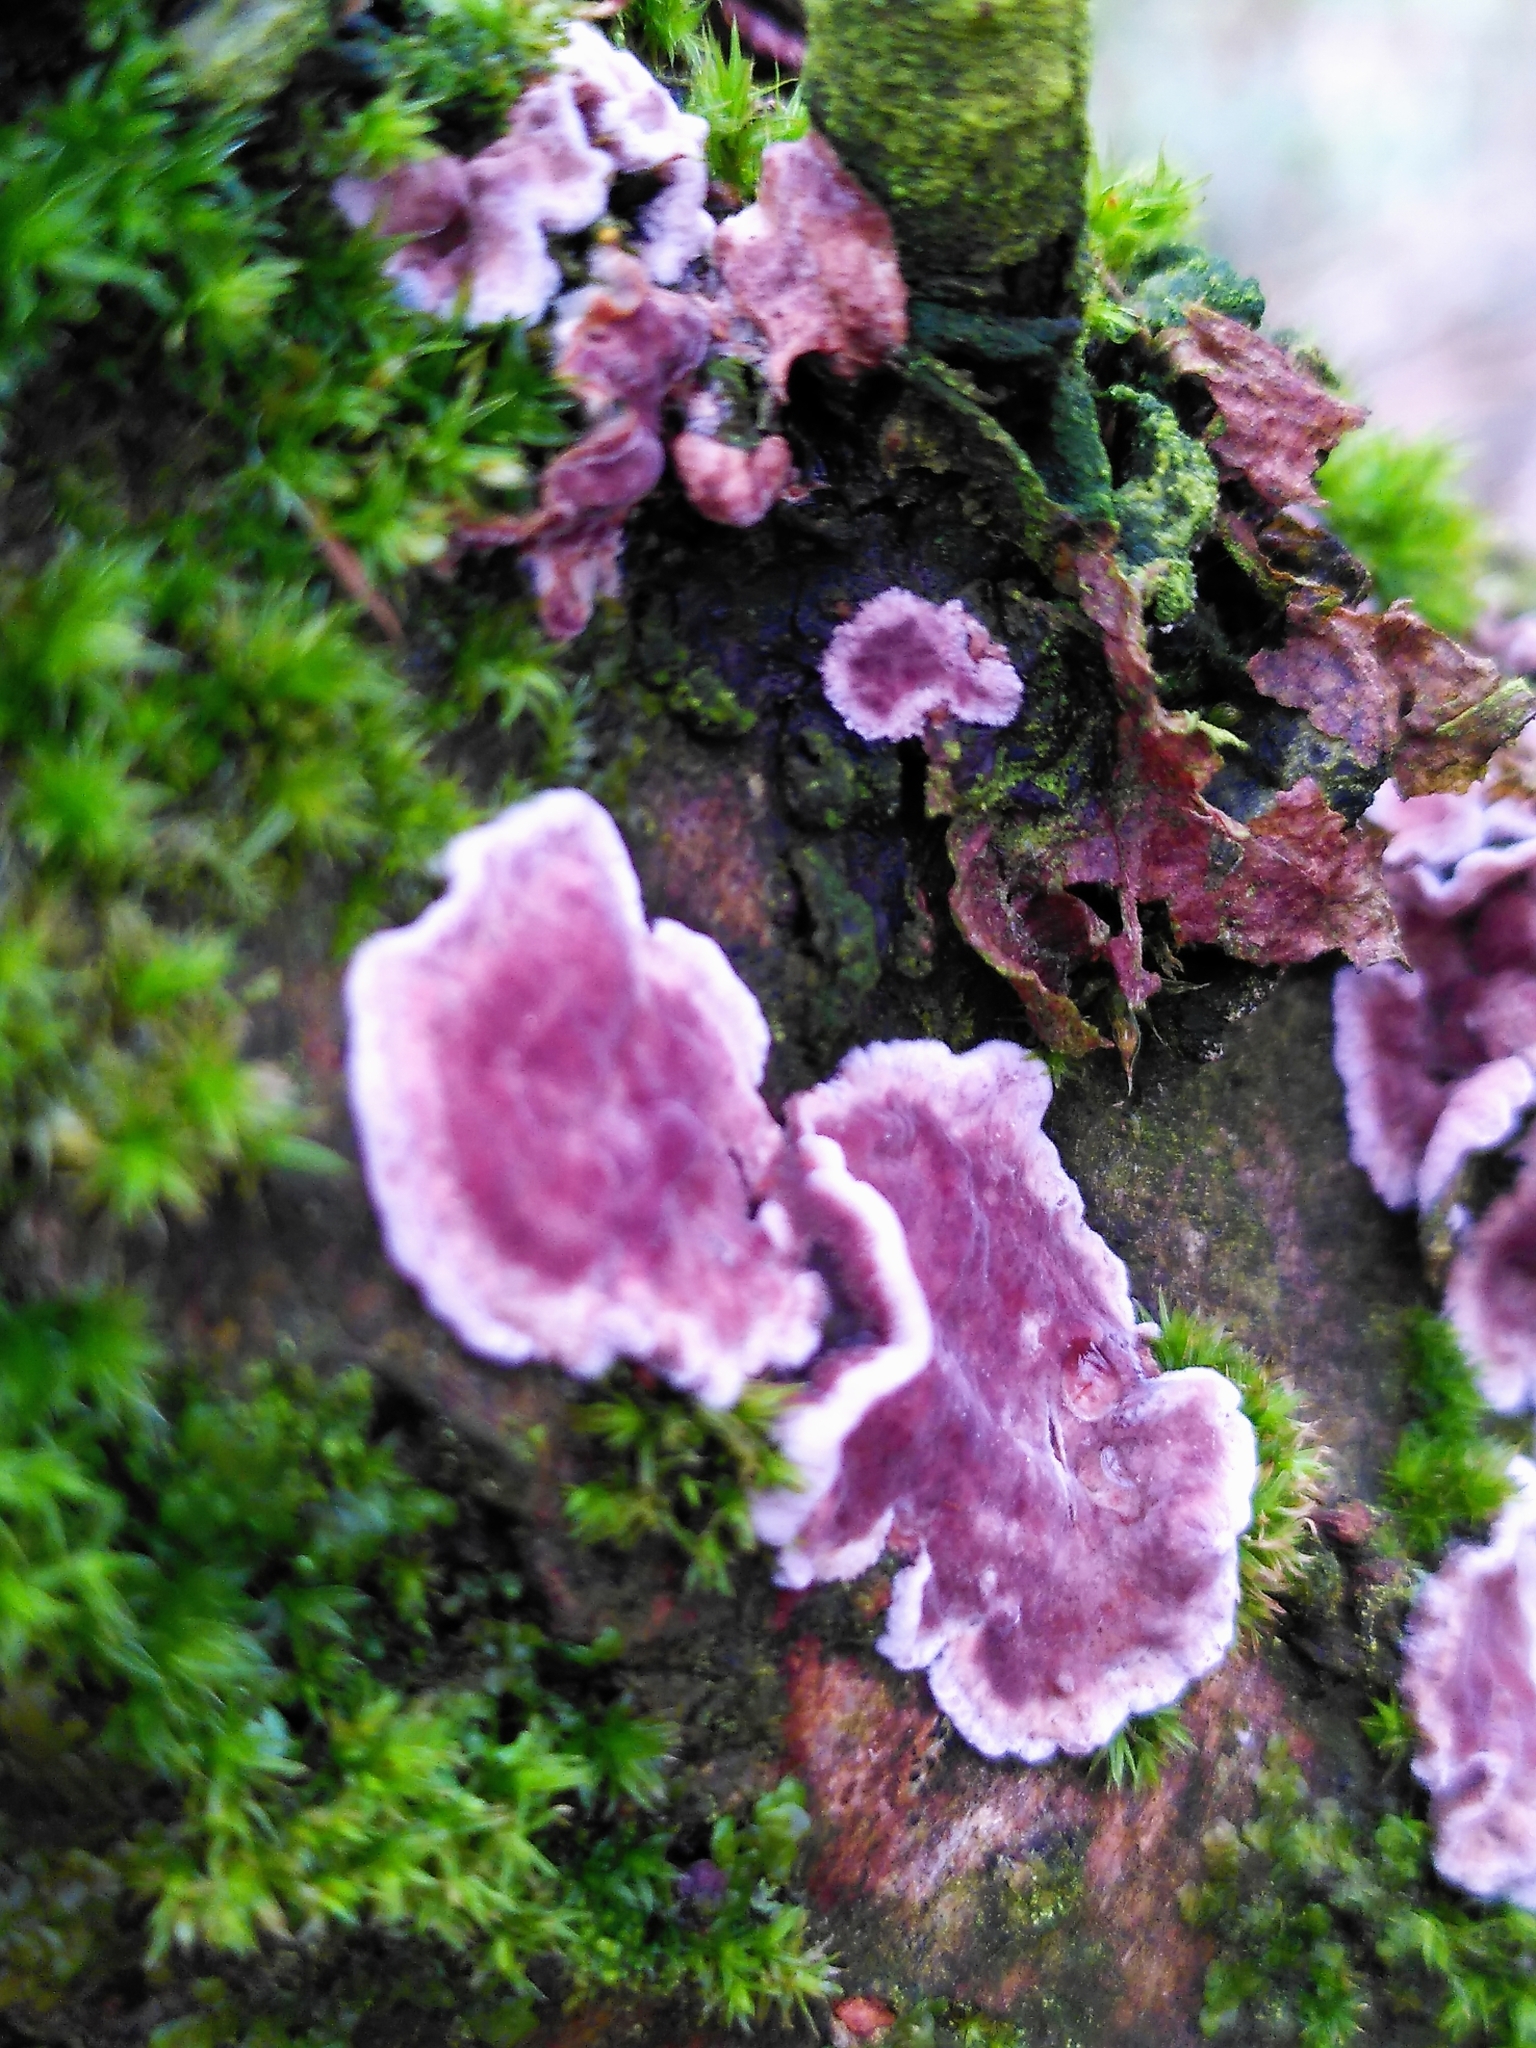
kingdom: Fungi
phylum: Basidiomycota
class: Agaricomycetes
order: Agaricales
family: Cyphellaceae
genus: Chondrostereum
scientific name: Chondrostereum purpureum
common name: Silver leaf disease
